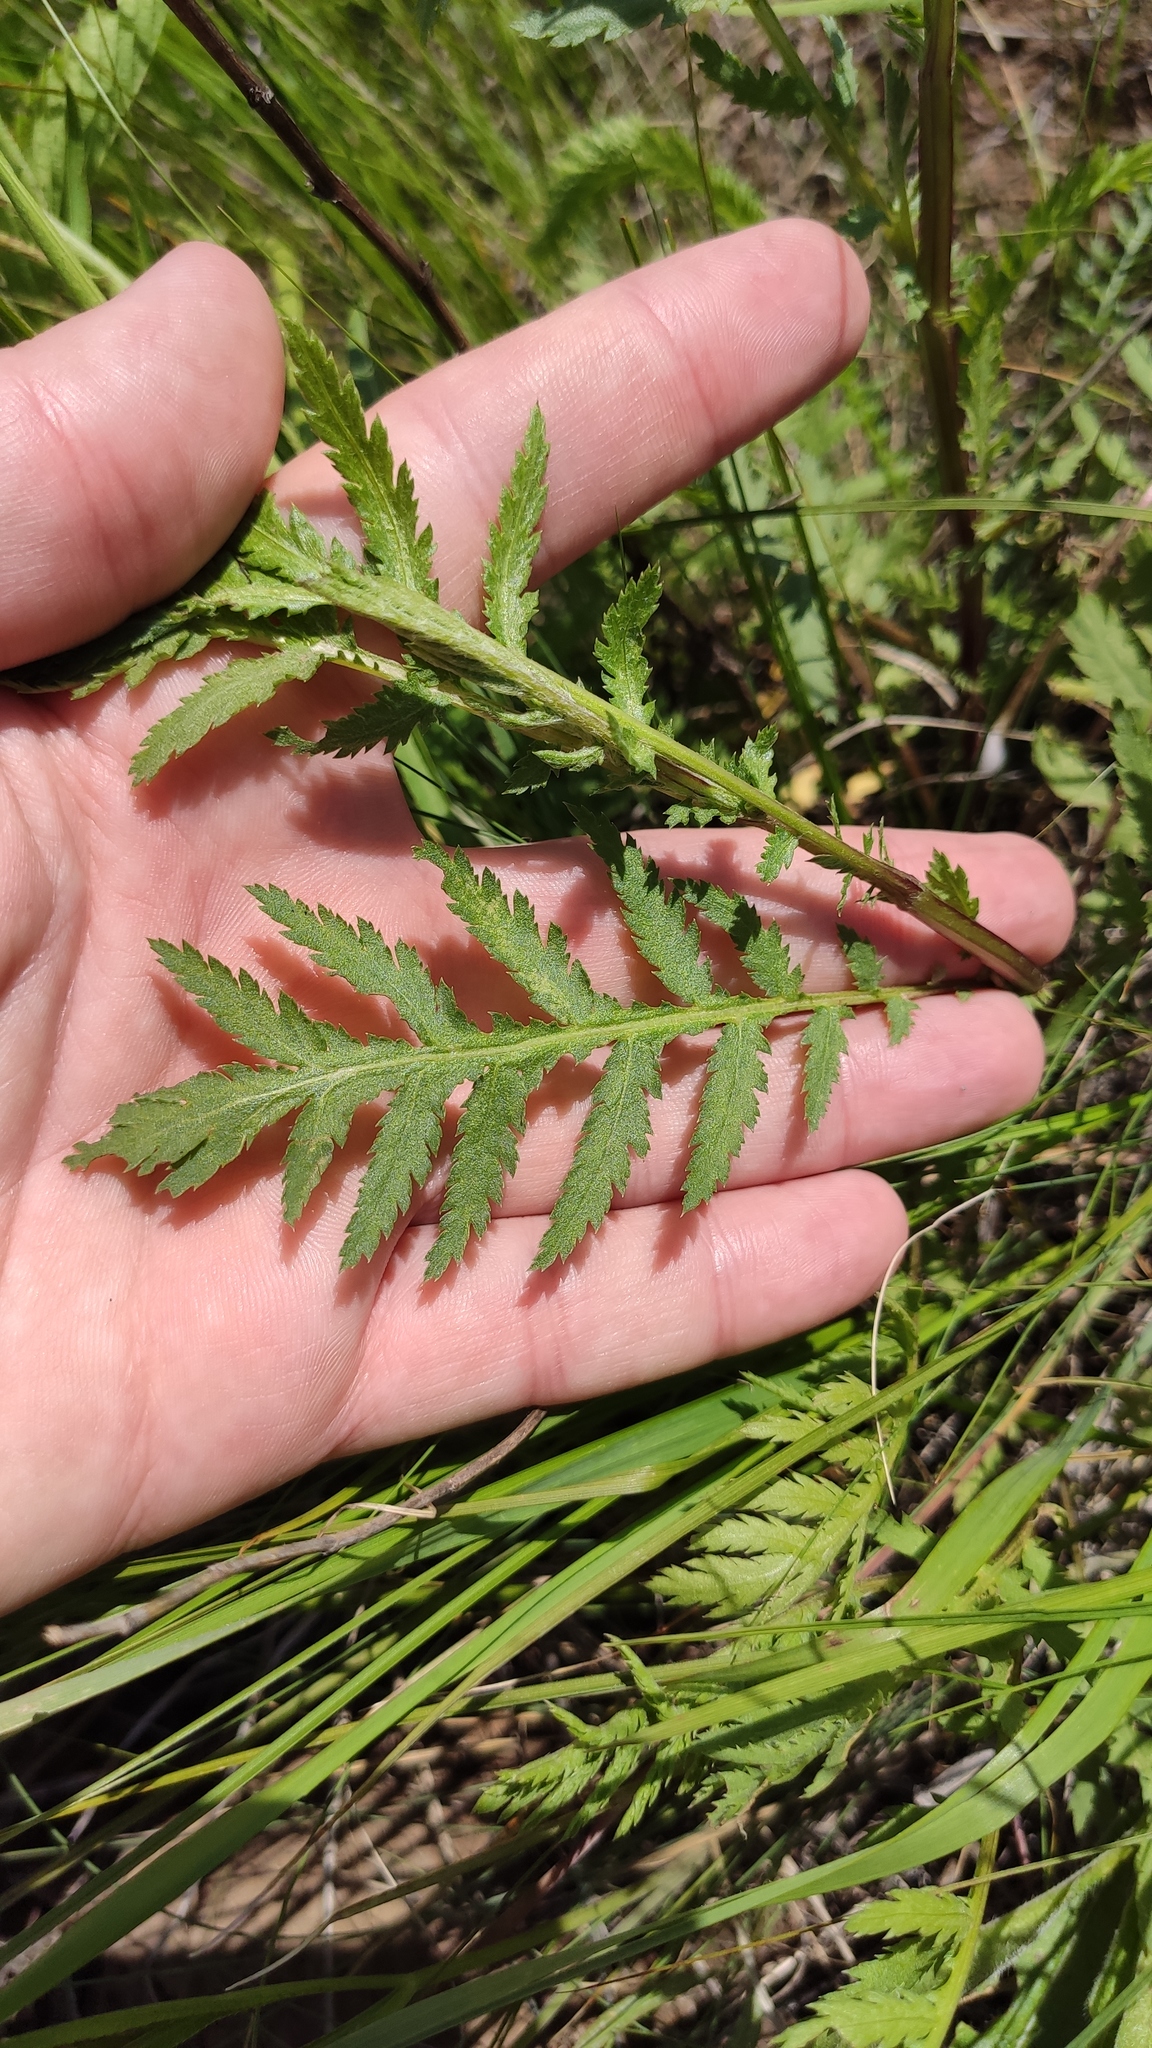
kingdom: Plantae
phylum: Tracheophyta
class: Magnoliopsida
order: Asterales
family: Asteraceae
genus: Tanacetum
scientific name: Tanacetum vulgare
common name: Common tansy
